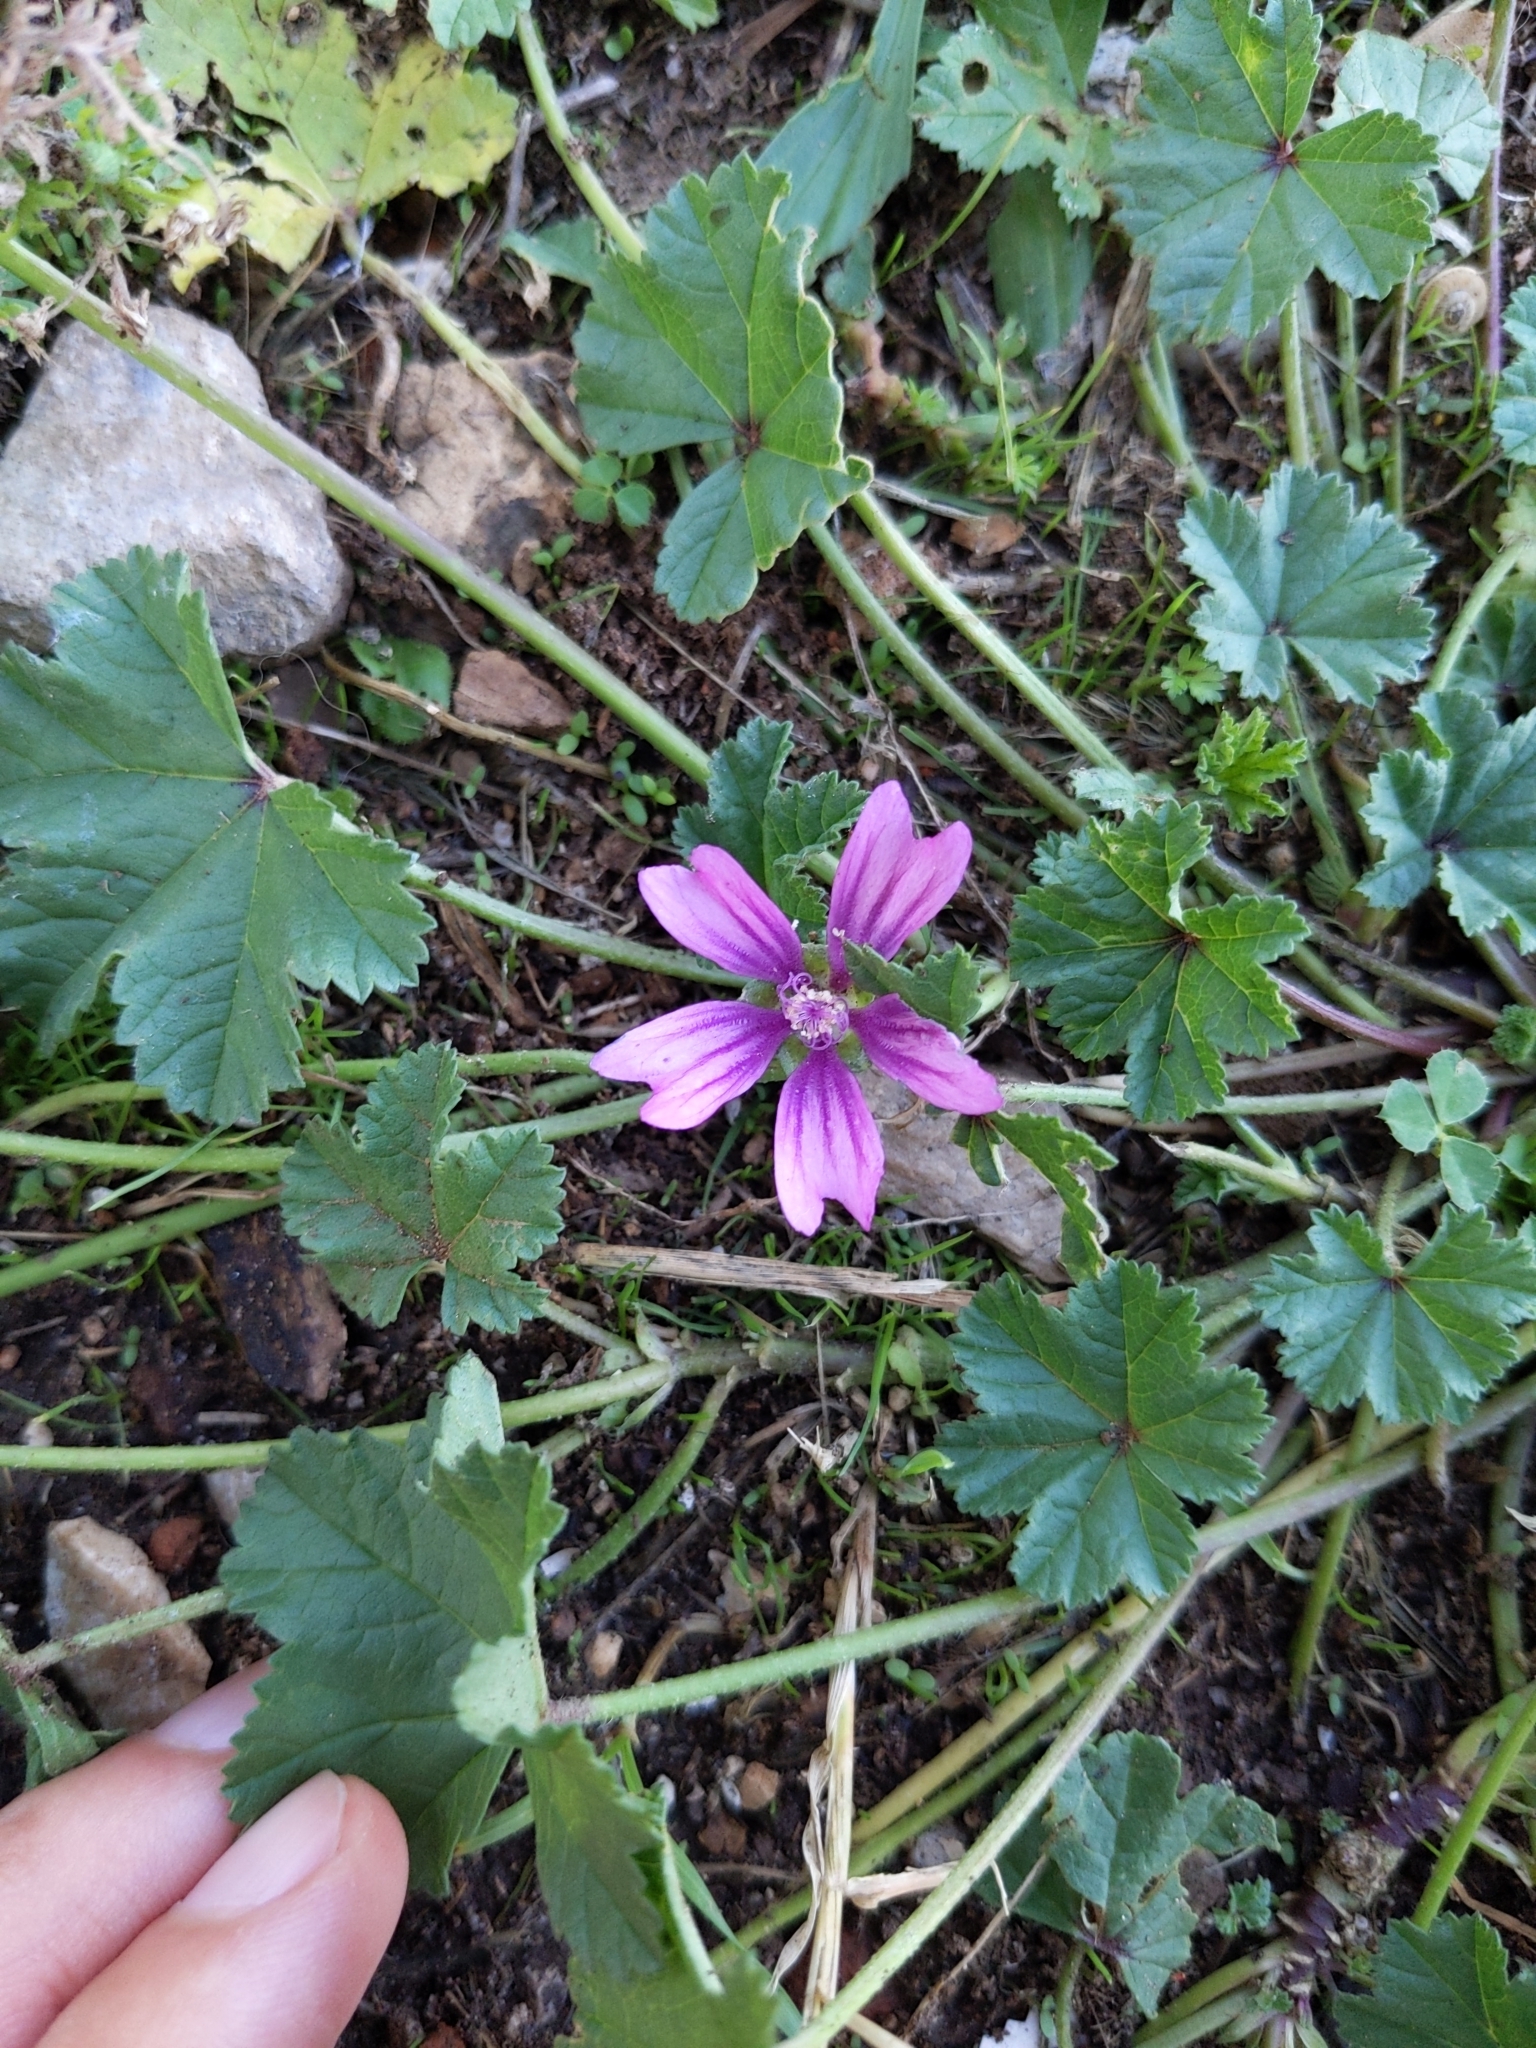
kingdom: Plantae
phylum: Tracheophyta
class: Magnoliopsida
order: Malvales
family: Malvaceae
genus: Malva
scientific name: Malva sylvestris
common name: Common mallow
